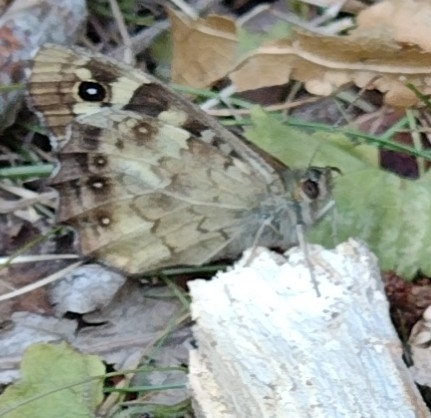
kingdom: Animalia
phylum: Arthropoda
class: Insecta
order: Lepidoptera
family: Nymphalidae
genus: Pararge
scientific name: Pararge aegeria
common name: Speckled wood
